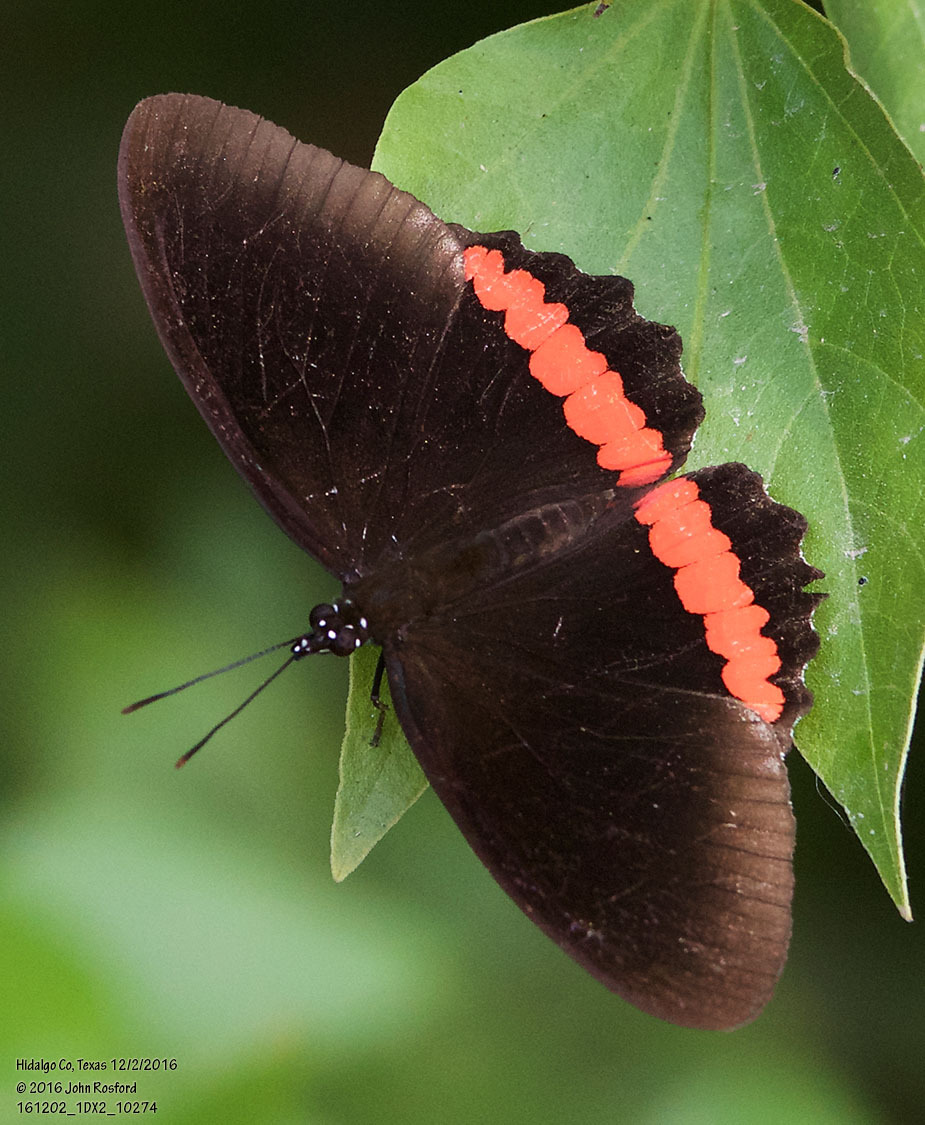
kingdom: Animalia
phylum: Arthropoda
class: Insecta
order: Lepidoptera
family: Nymphalidae
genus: Biblis
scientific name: Biblis aganisa
